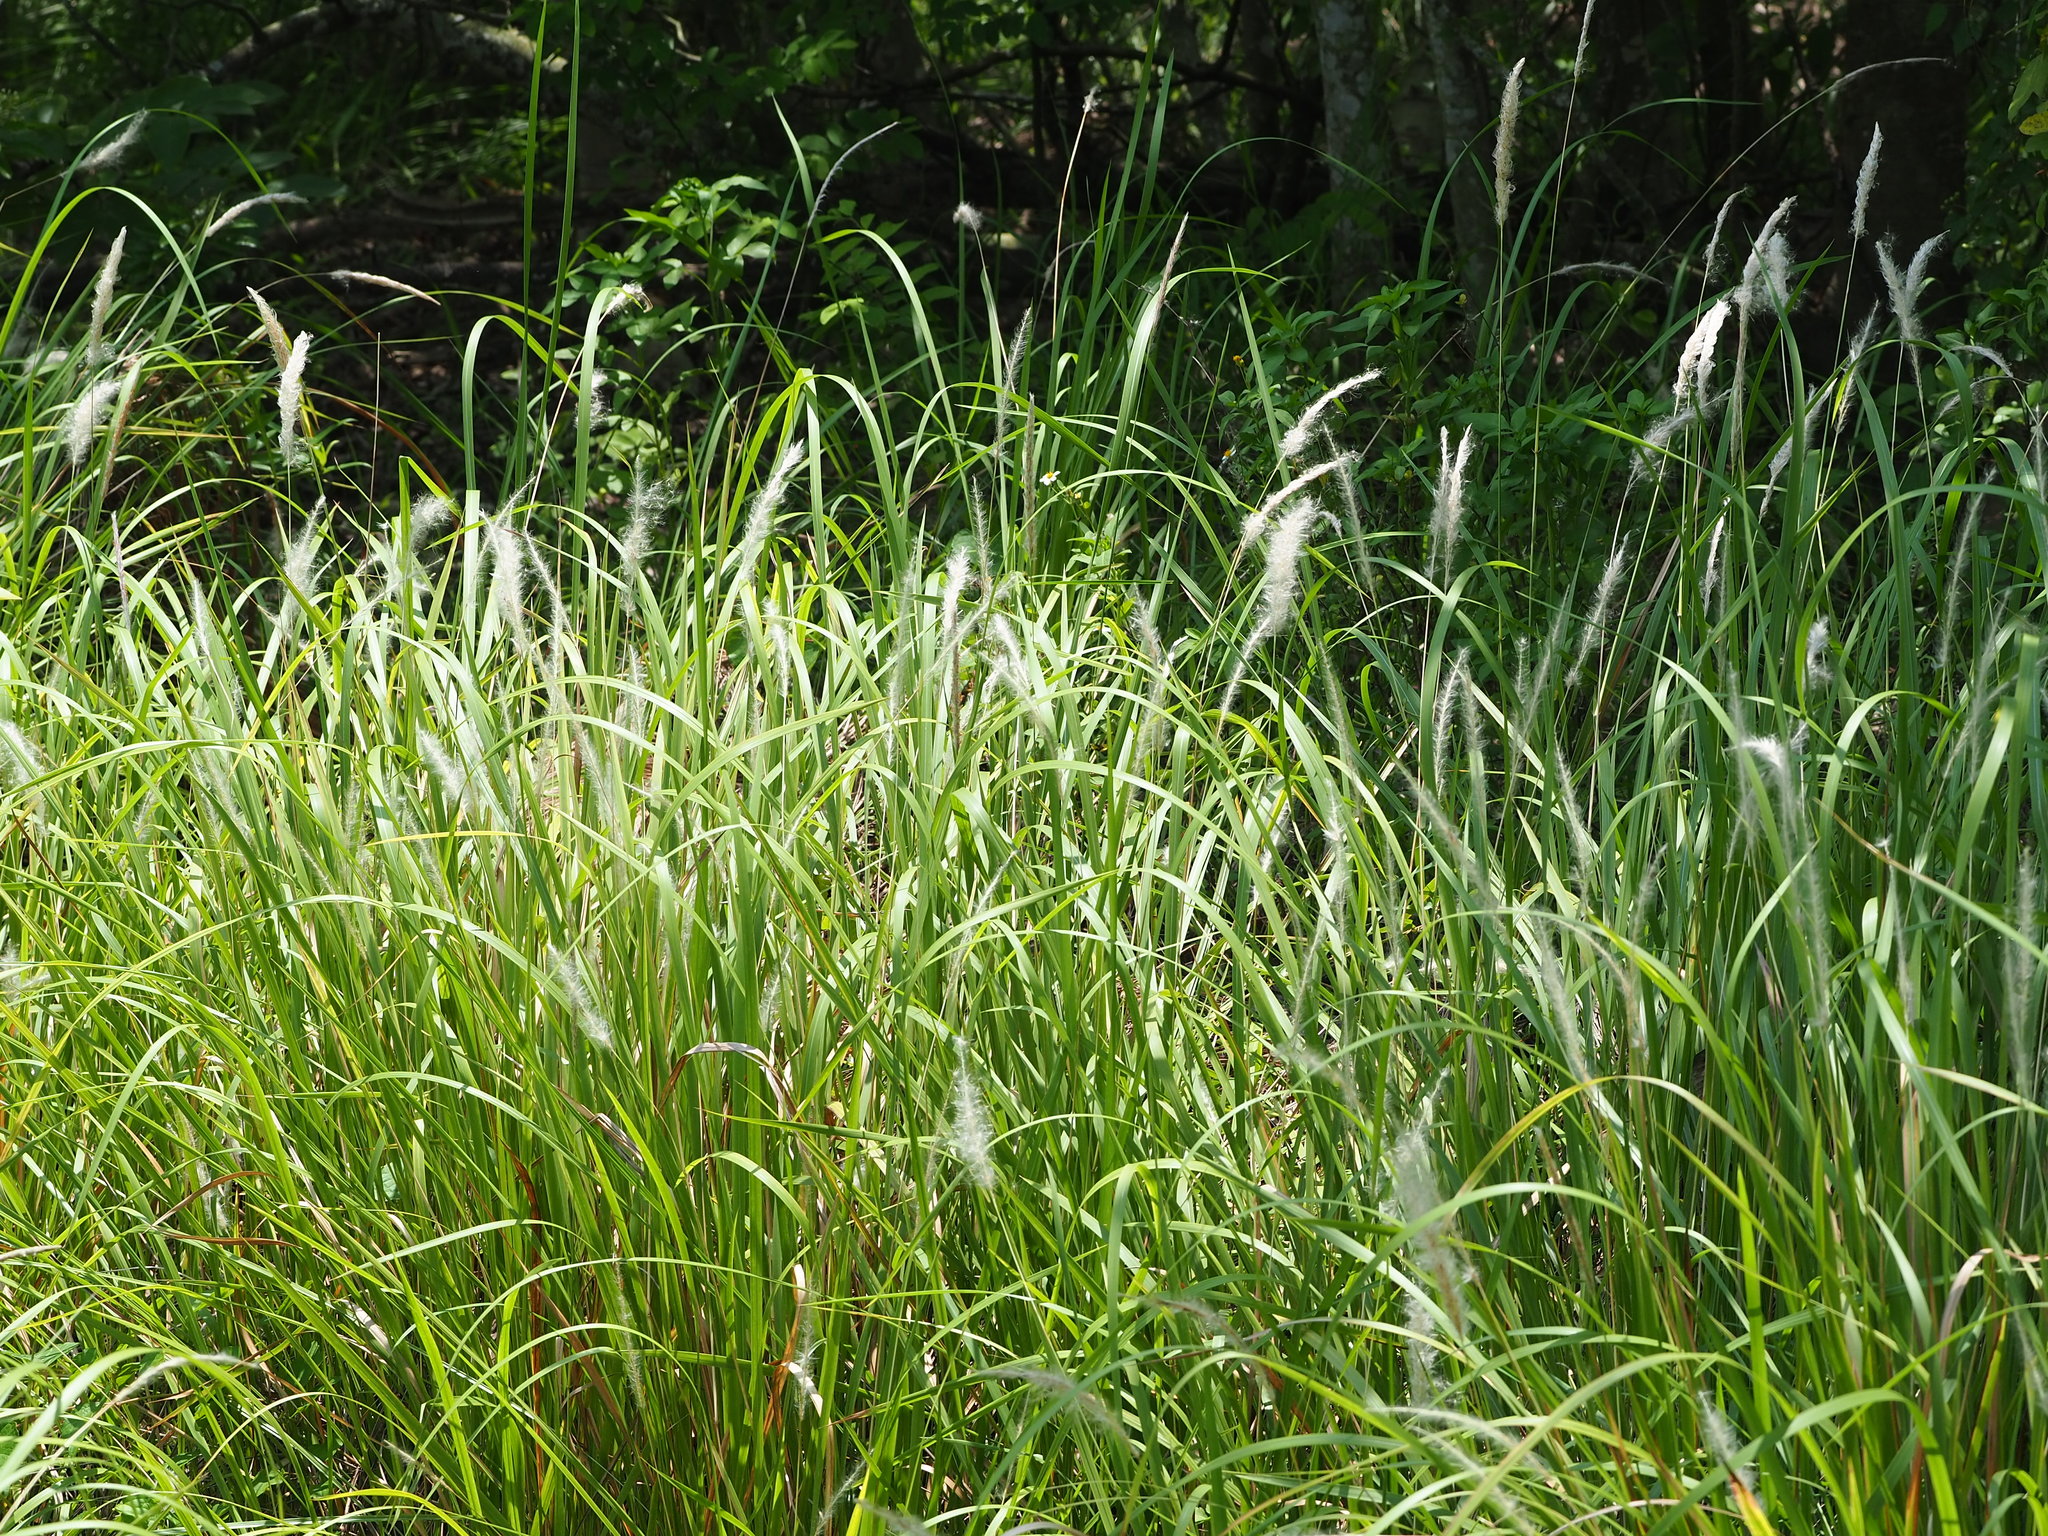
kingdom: Plantae
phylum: Tracheophyta
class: Liliopsida
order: Poales
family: Poaceae
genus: Imperata
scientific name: Imperata cylindrica
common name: Cogongrass
